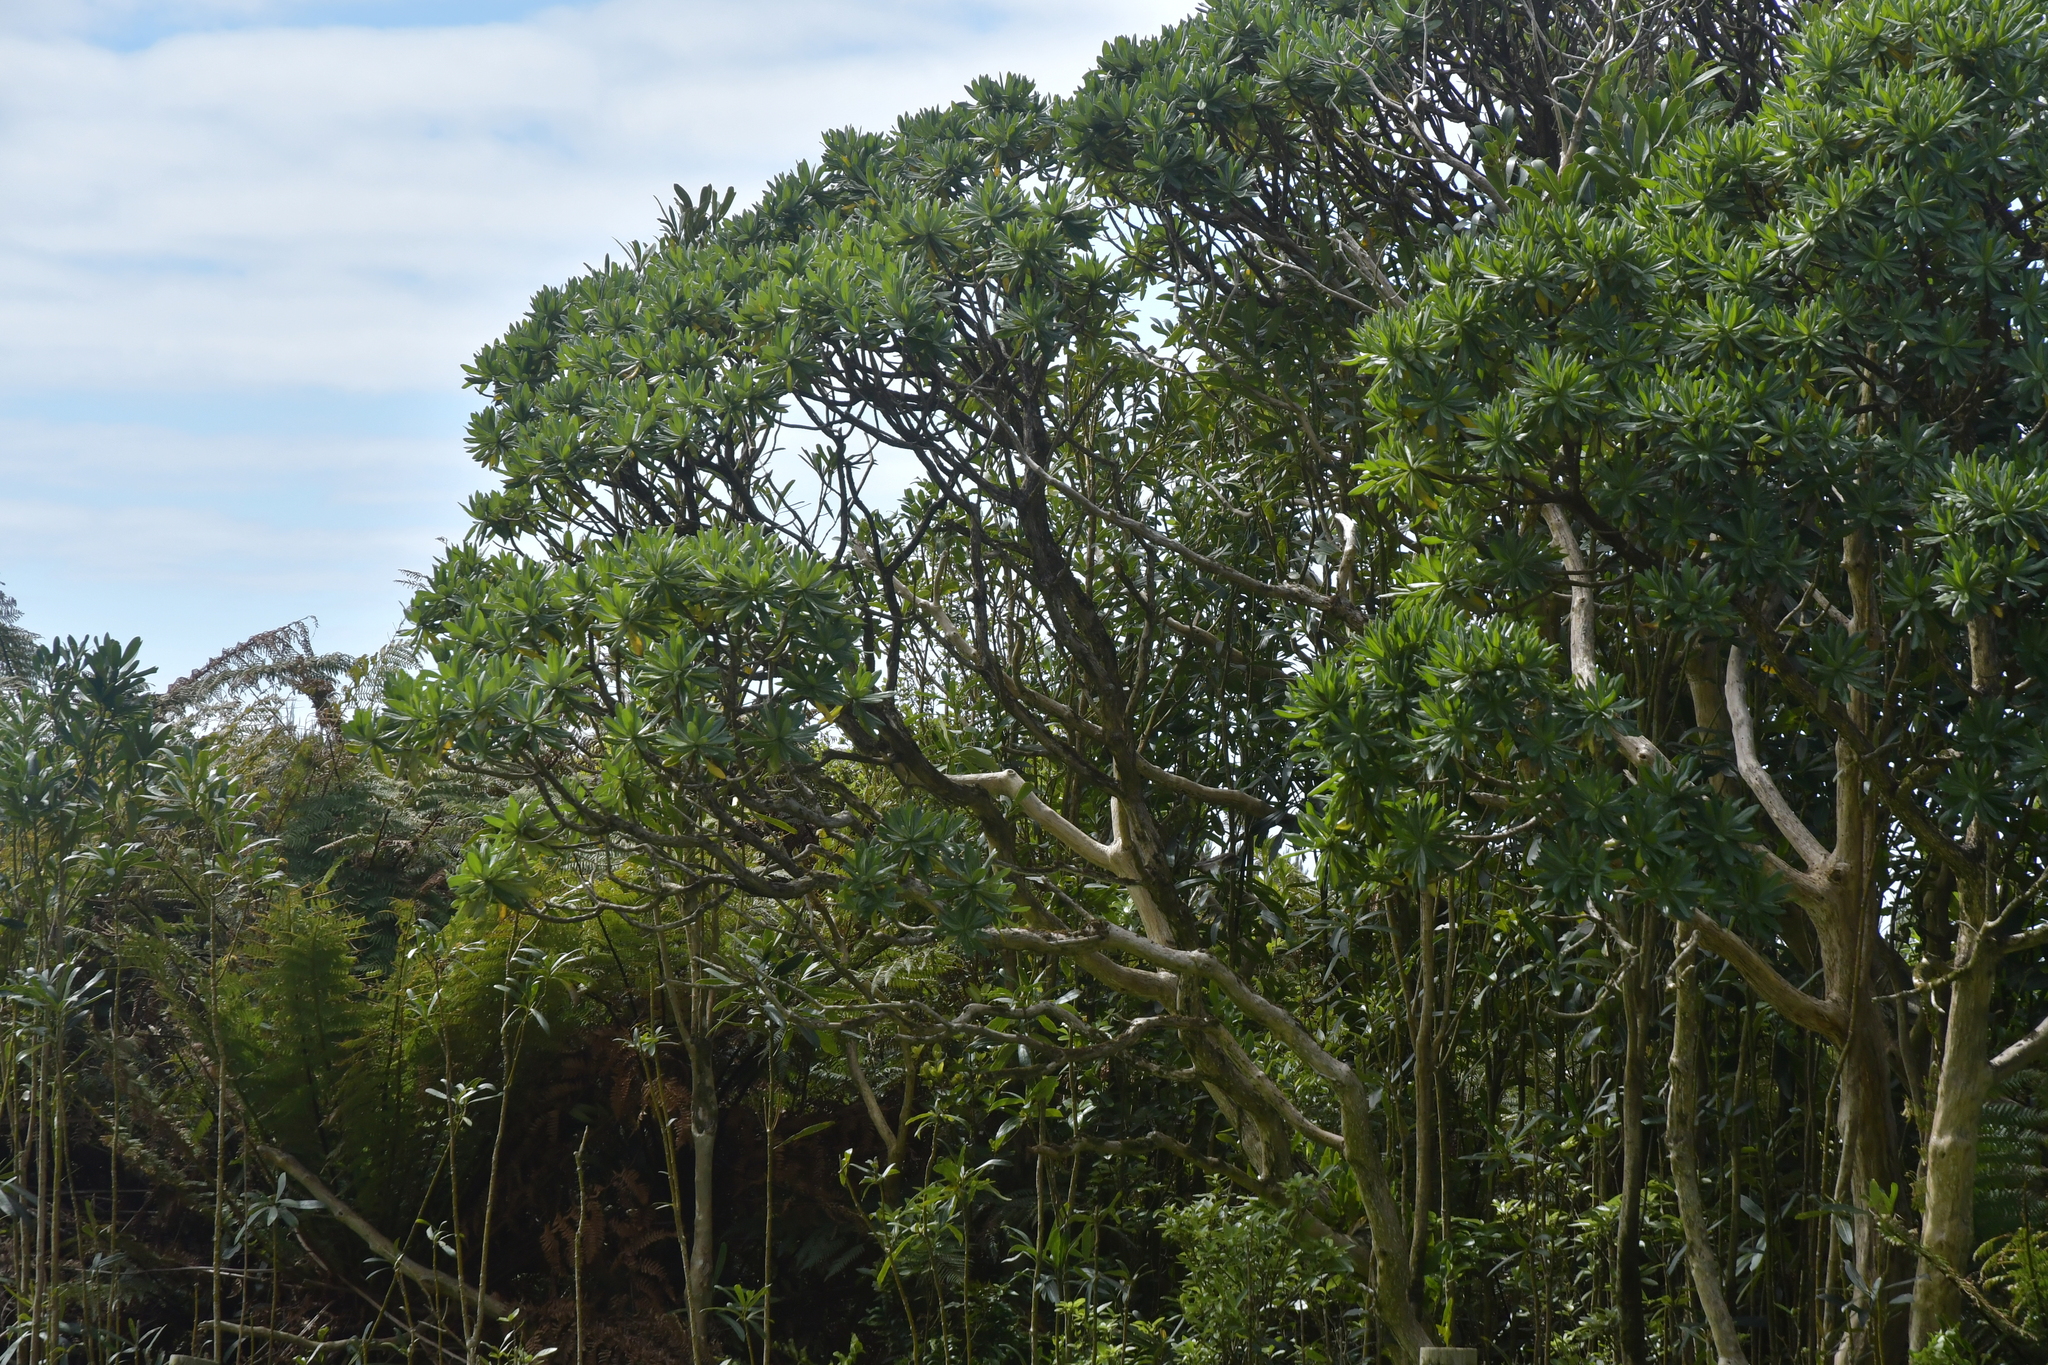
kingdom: Plantae
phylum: Tracheophyta
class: Magnoliopsida
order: Asterales
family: Asteraceae
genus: Brachyglottis
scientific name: Brachyglottis huntii
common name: Chatham island christmas tree
